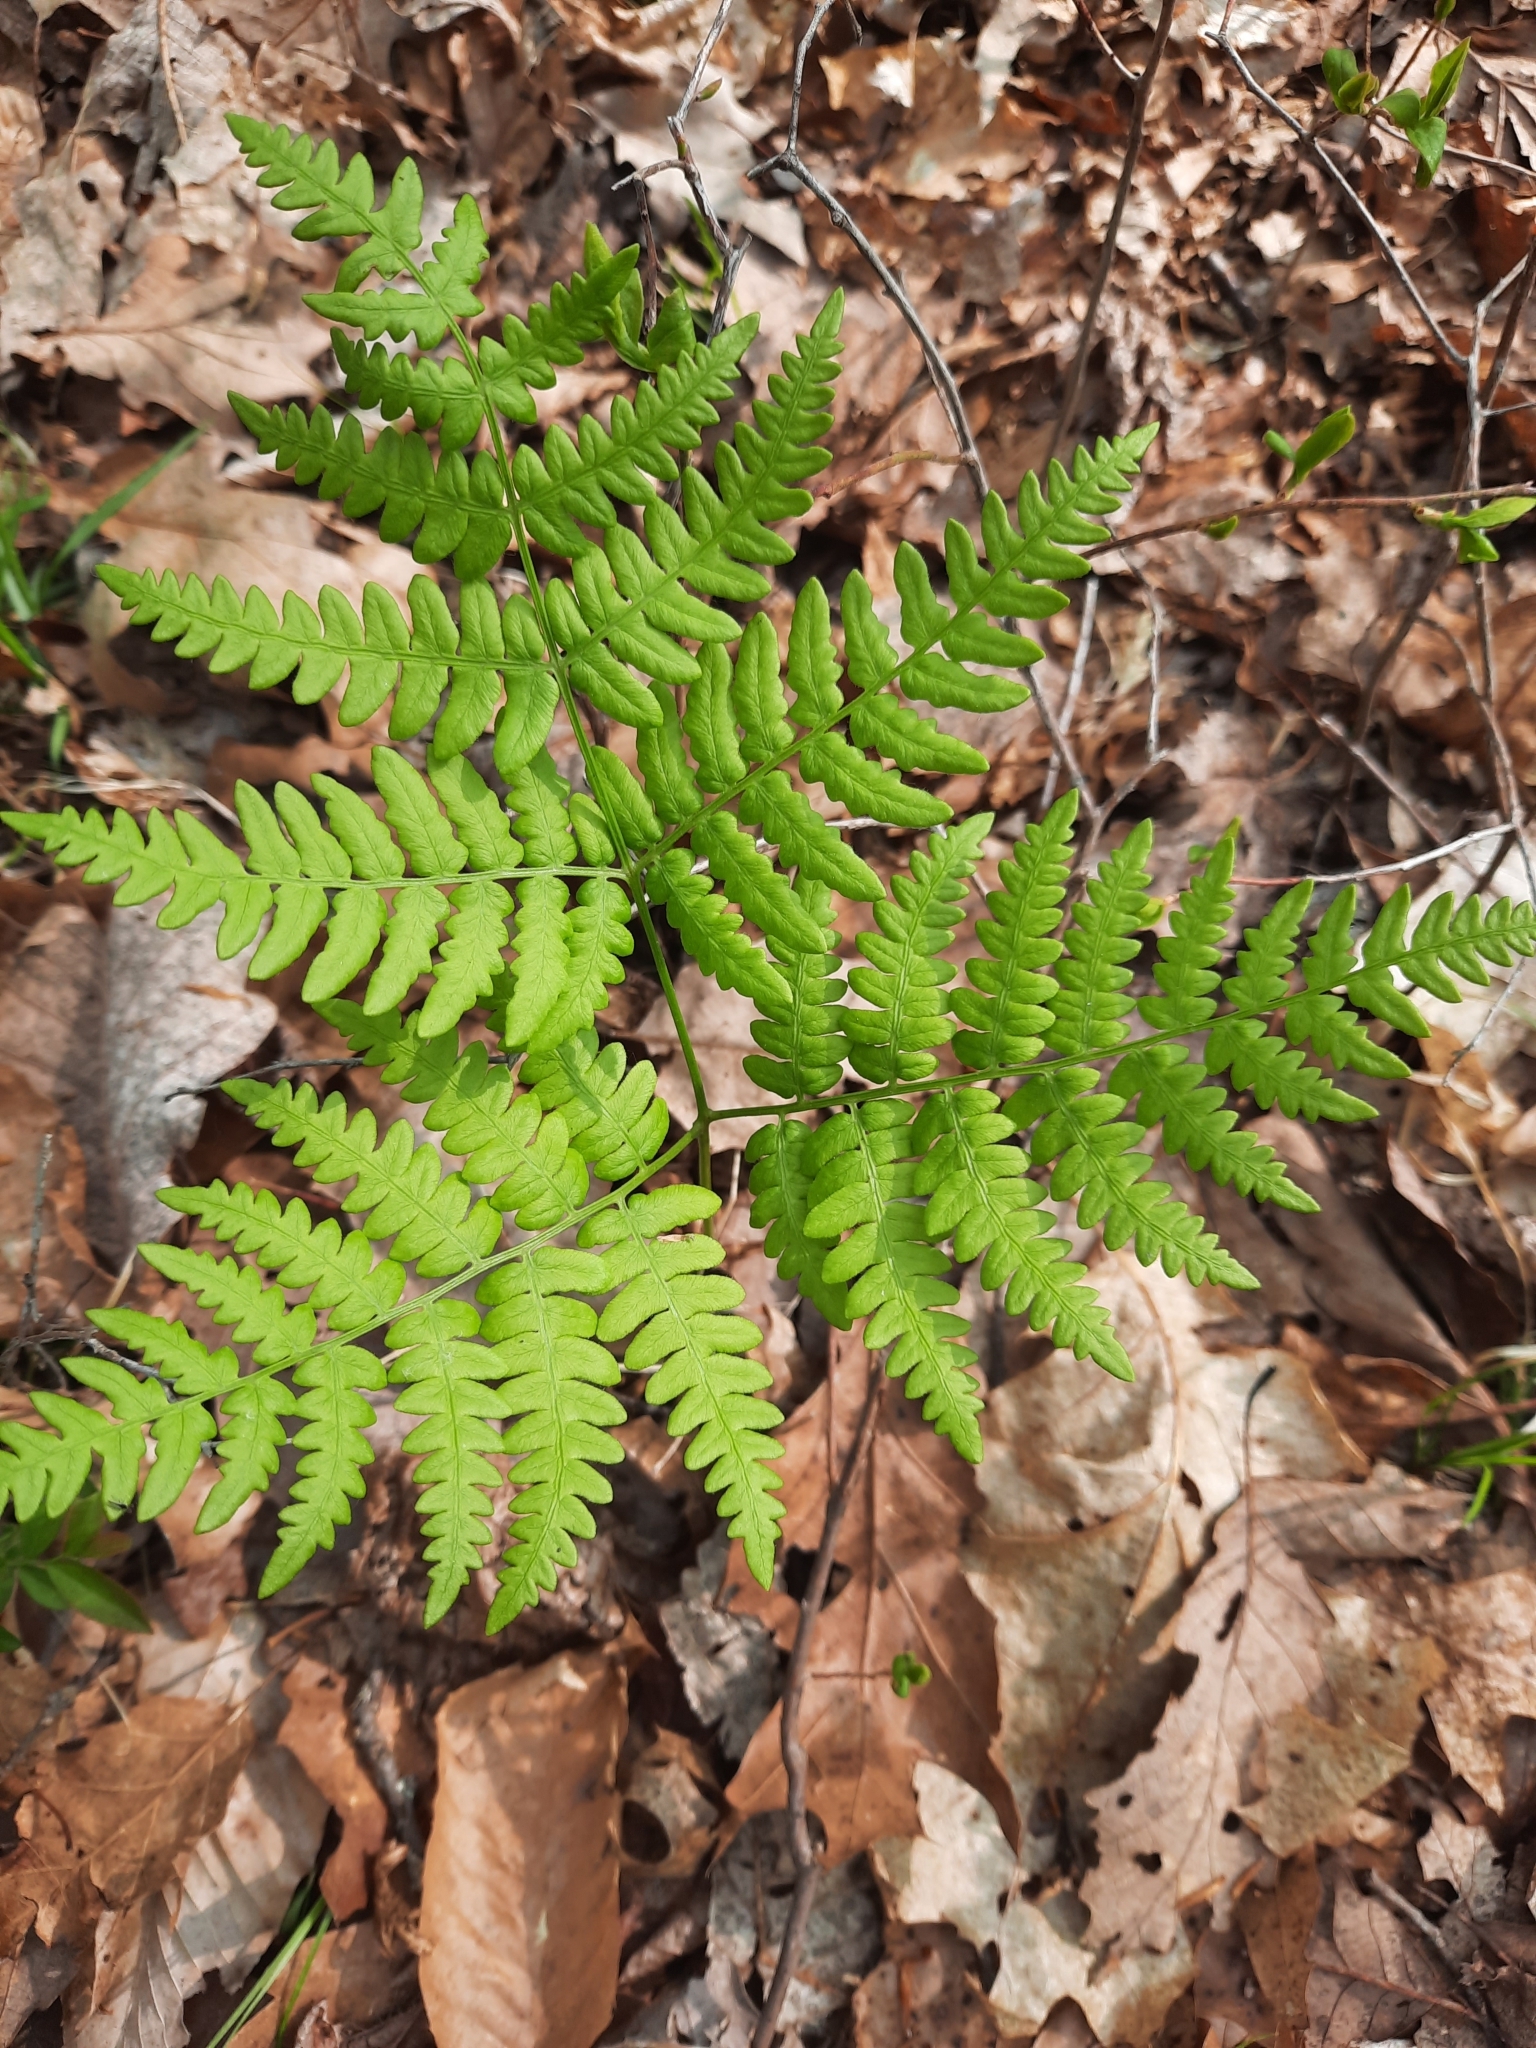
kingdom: Plantae
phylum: Tracheophyta
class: Polypodiopsida
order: Polypodiales
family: Dennstaedtiaceae
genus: Pteridium
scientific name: Pteridium aquilinum
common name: Bracken
